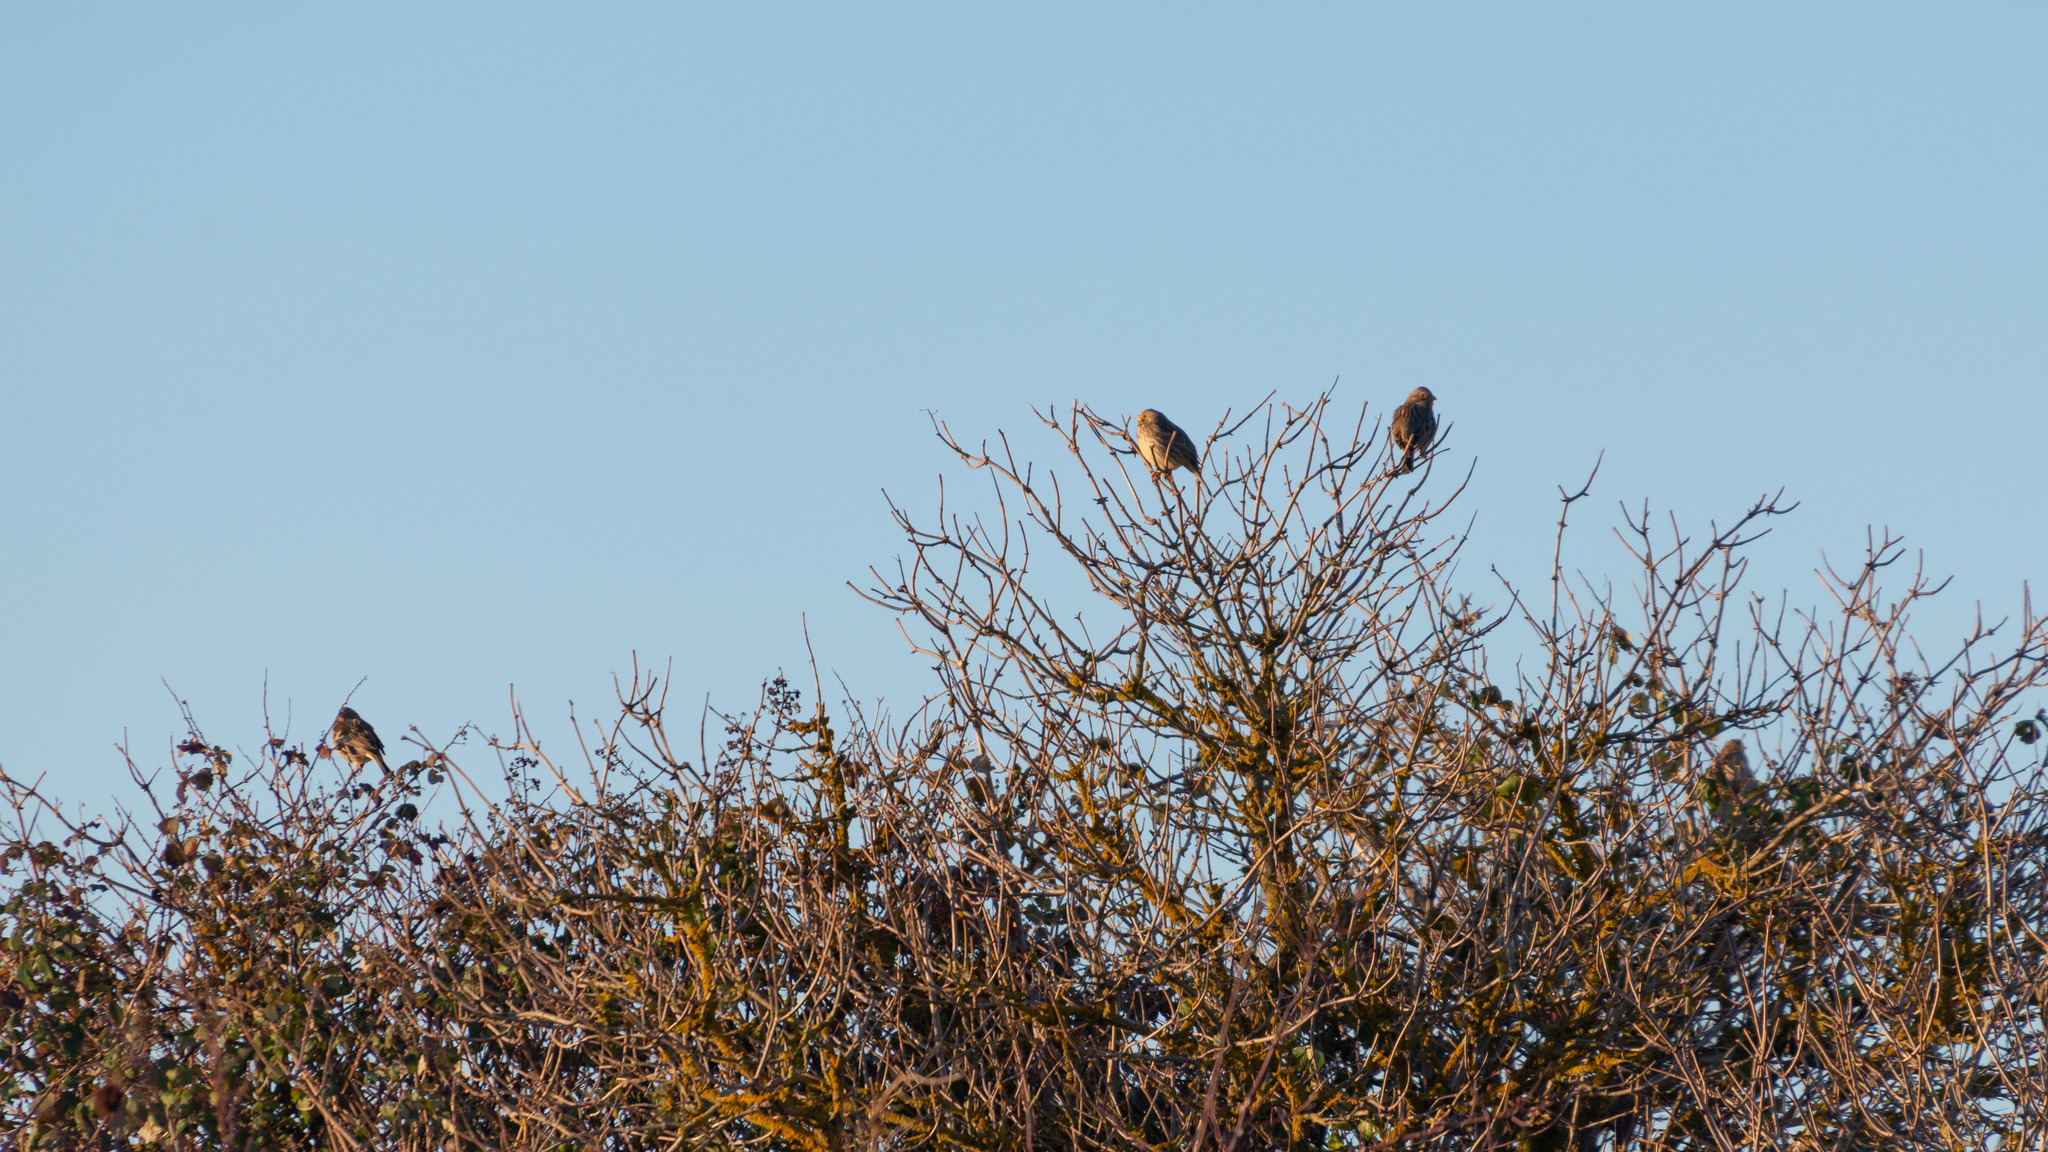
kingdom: Animalia
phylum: Chordata
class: Aves
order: Passeriformes
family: Emberizidae
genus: Emberiza
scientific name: Emberiza calandra
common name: Corn bunting
